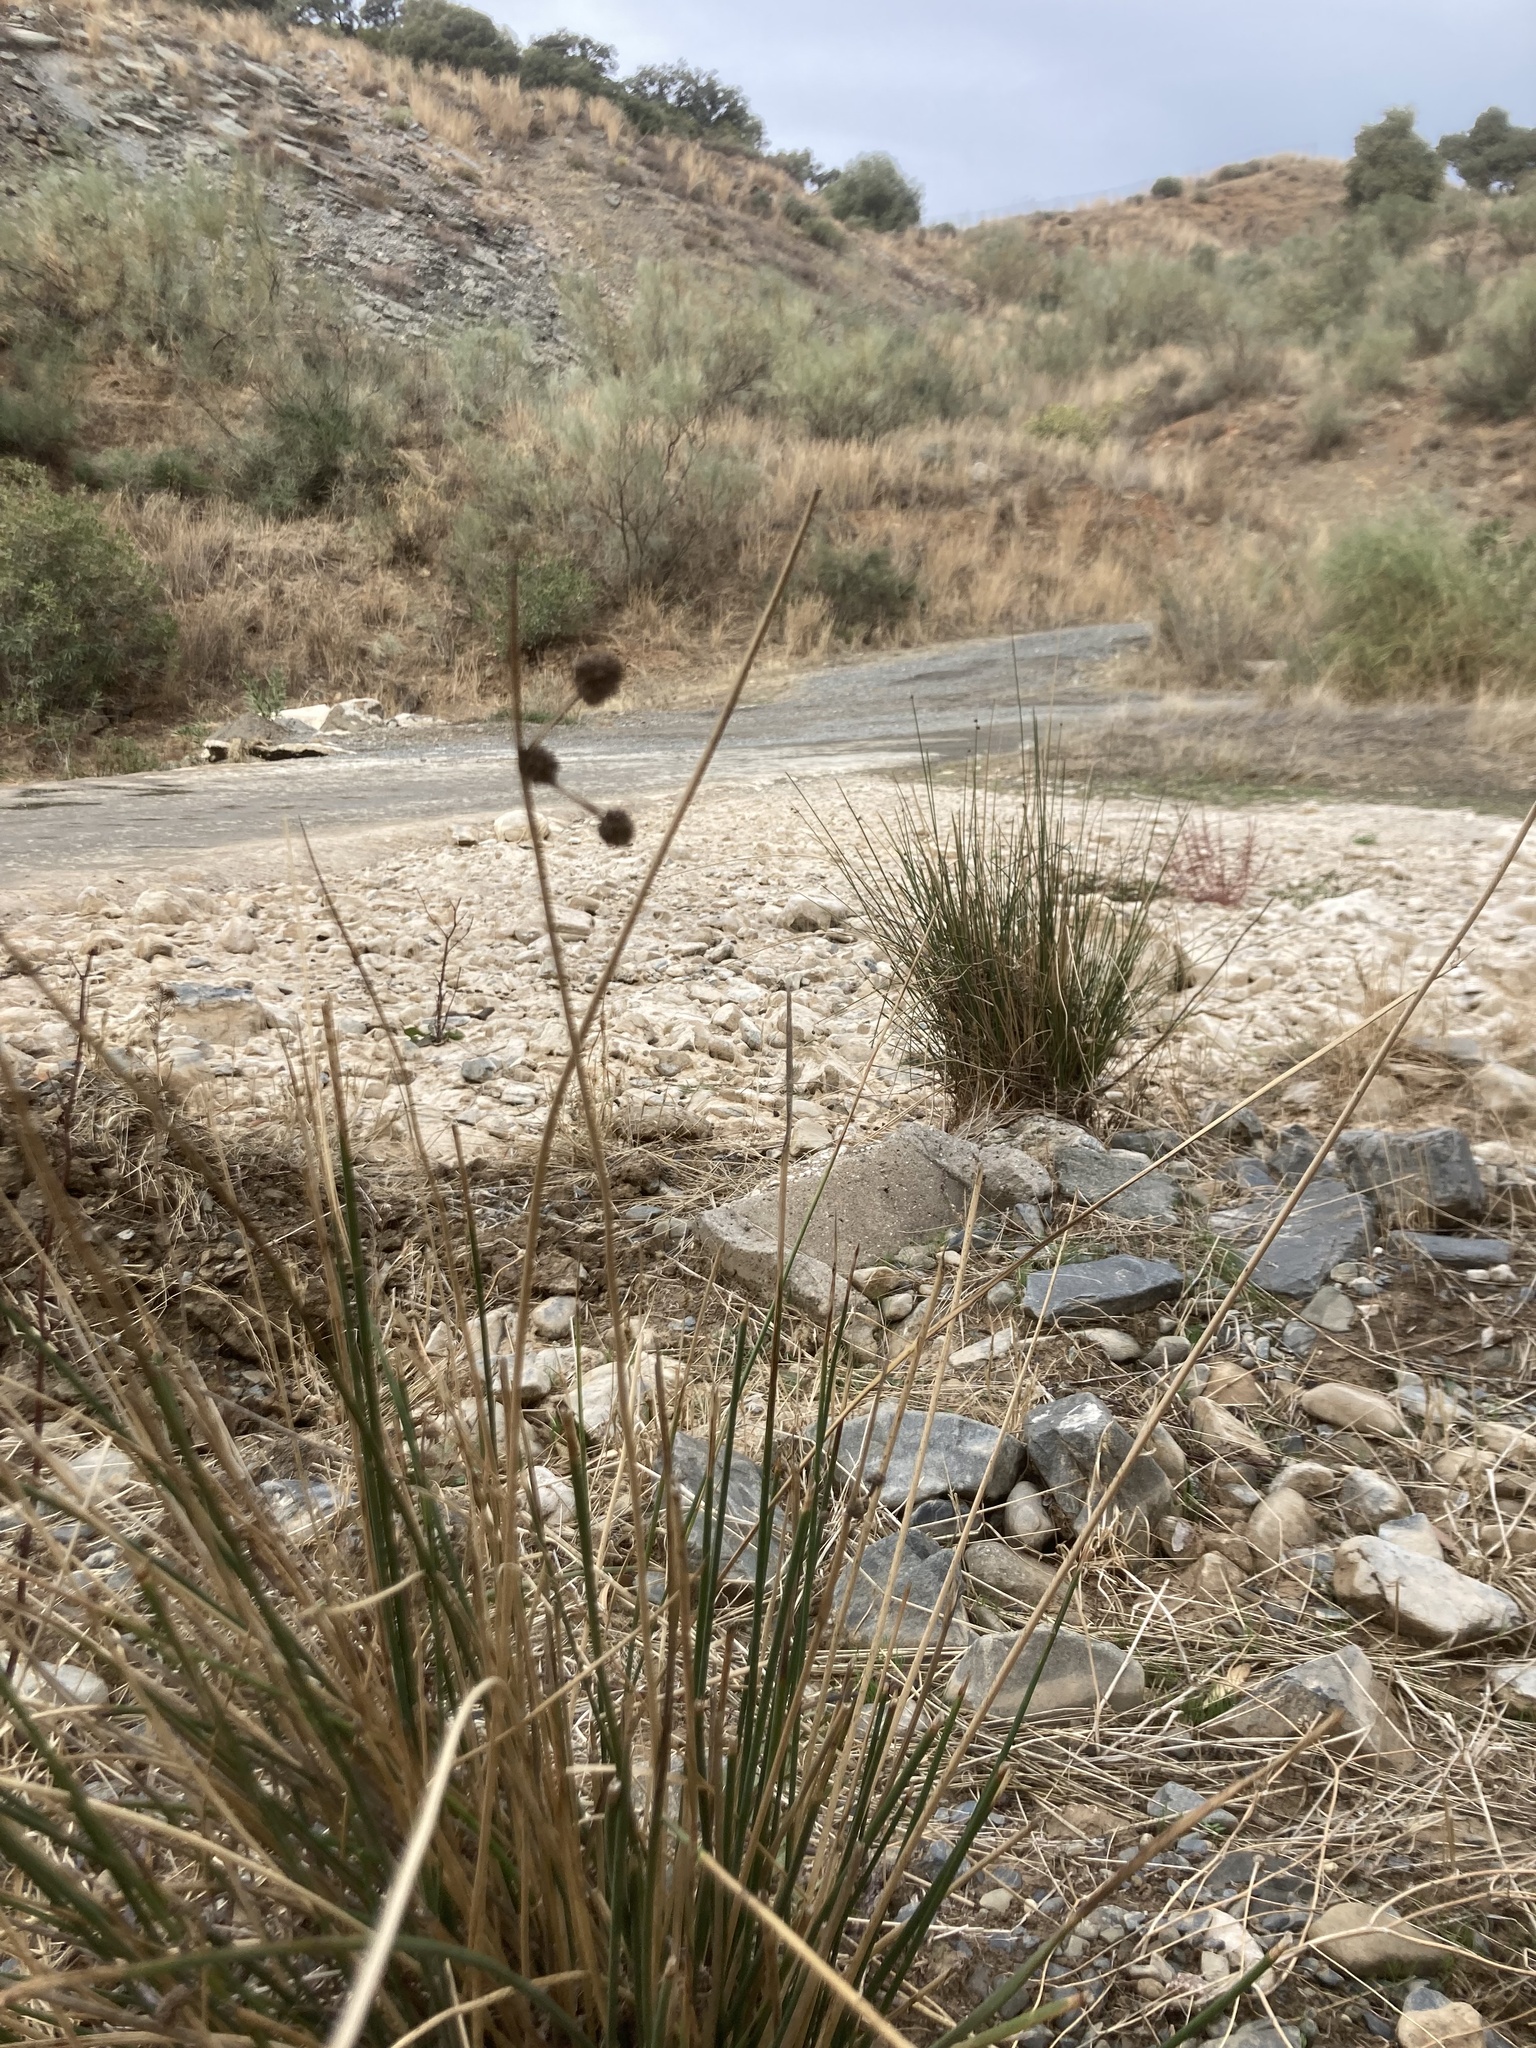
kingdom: Plantae
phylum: Tracheophyta
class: Liliopsida
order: Poales
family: Cyperaceae
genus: Scirpoides
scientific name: Scirpoides holoschoenus
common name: Round-headed club-rush
